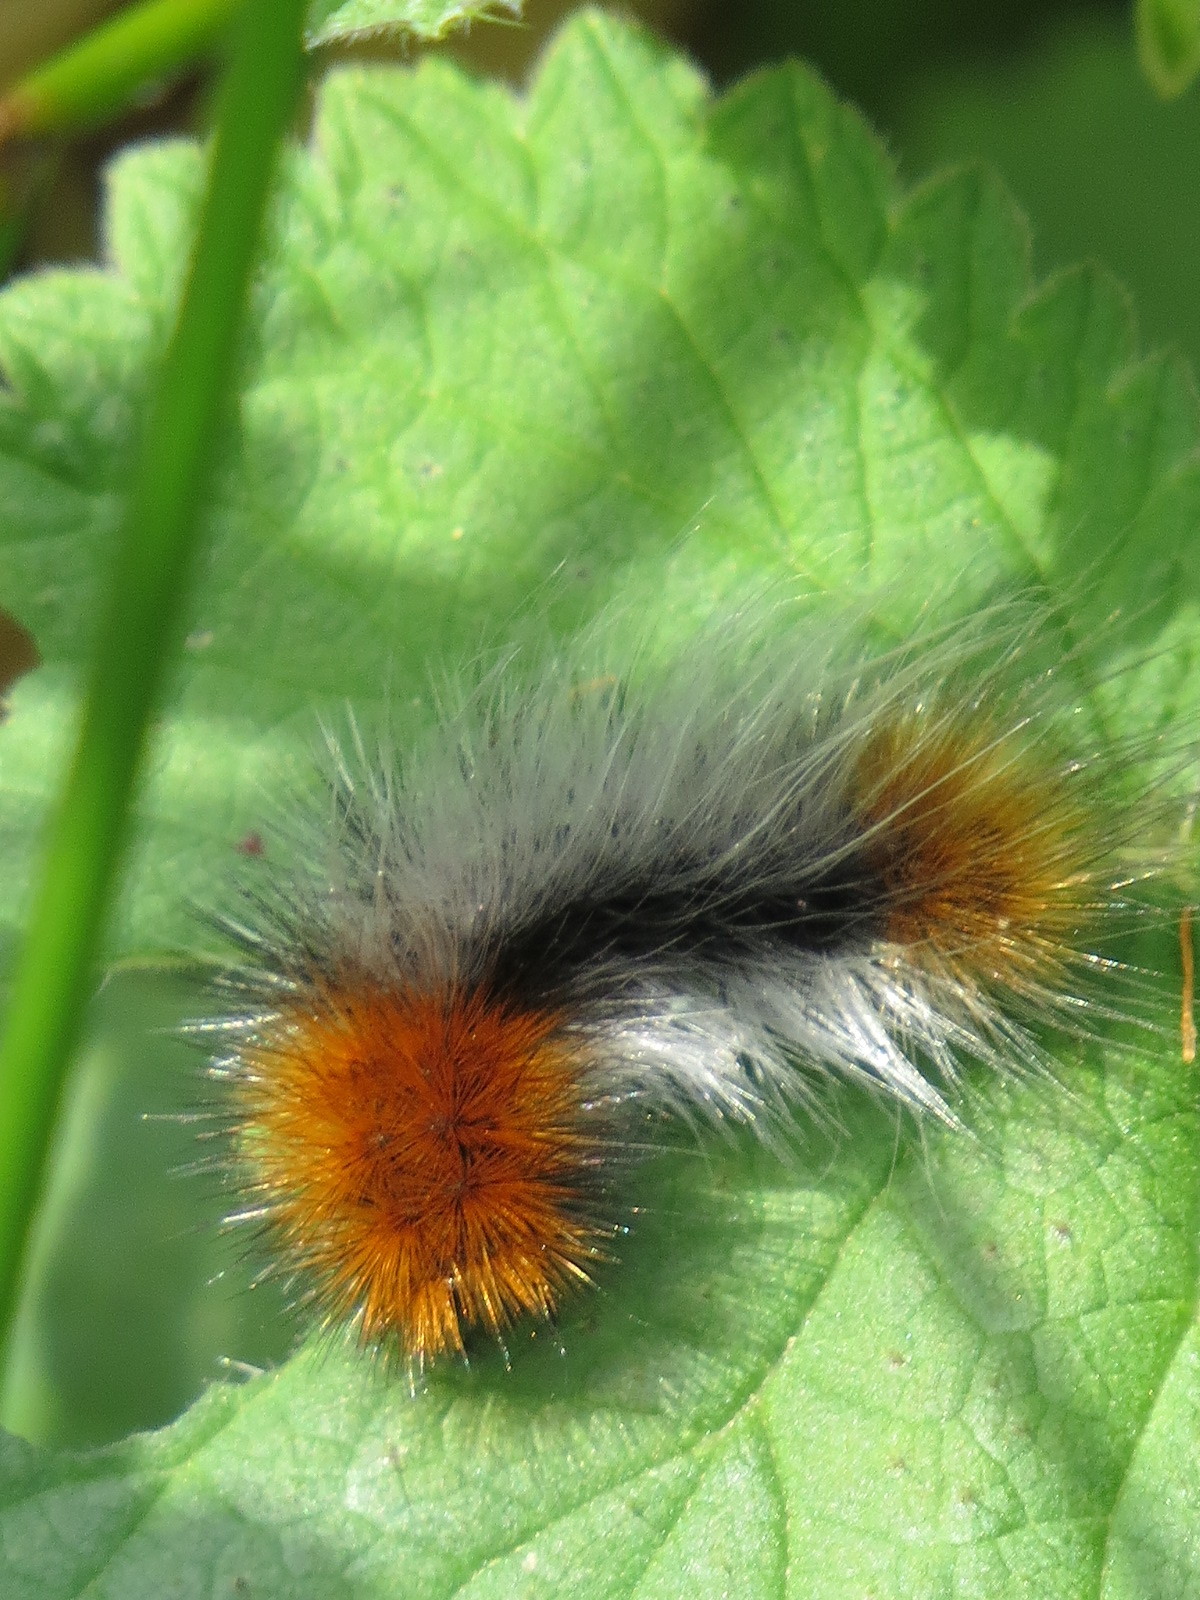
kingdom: Animalia
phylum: Arthropoda
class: Insecta
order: Lepidoptera
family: Erebidae
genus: Arctia
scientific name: Arctia tigrina
